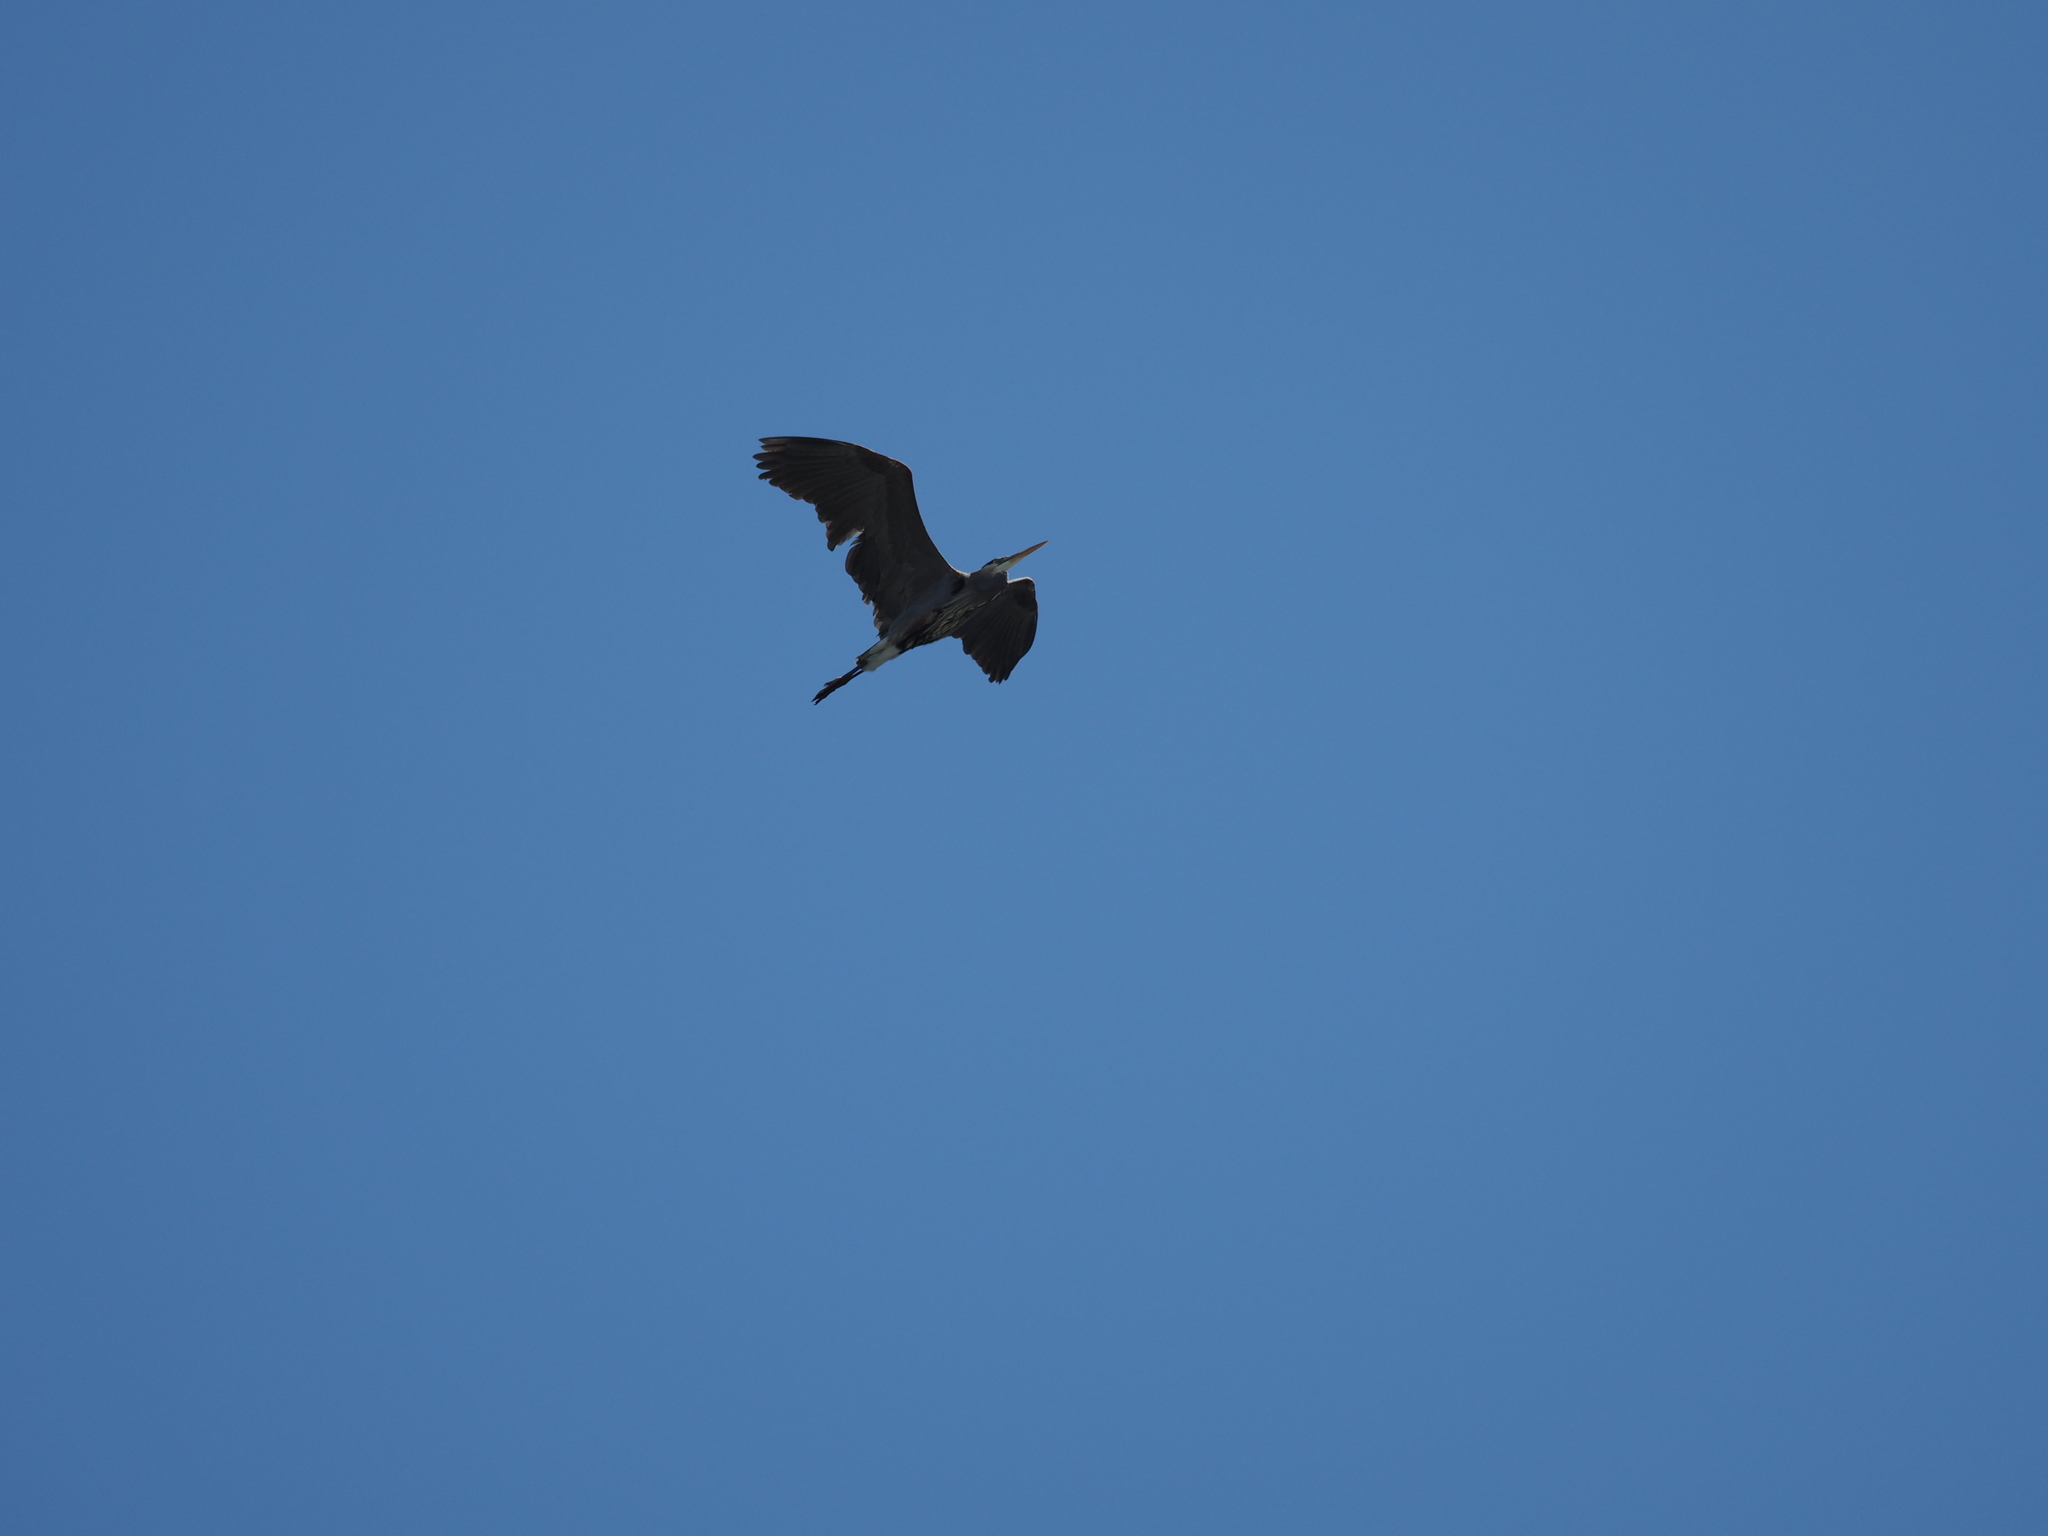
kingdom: Animalia
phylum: Chordata
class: Aves
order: Pelecaniformes
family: Ardeidae
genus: Ardea
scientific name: Ardea herodias
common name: Great blue heron
